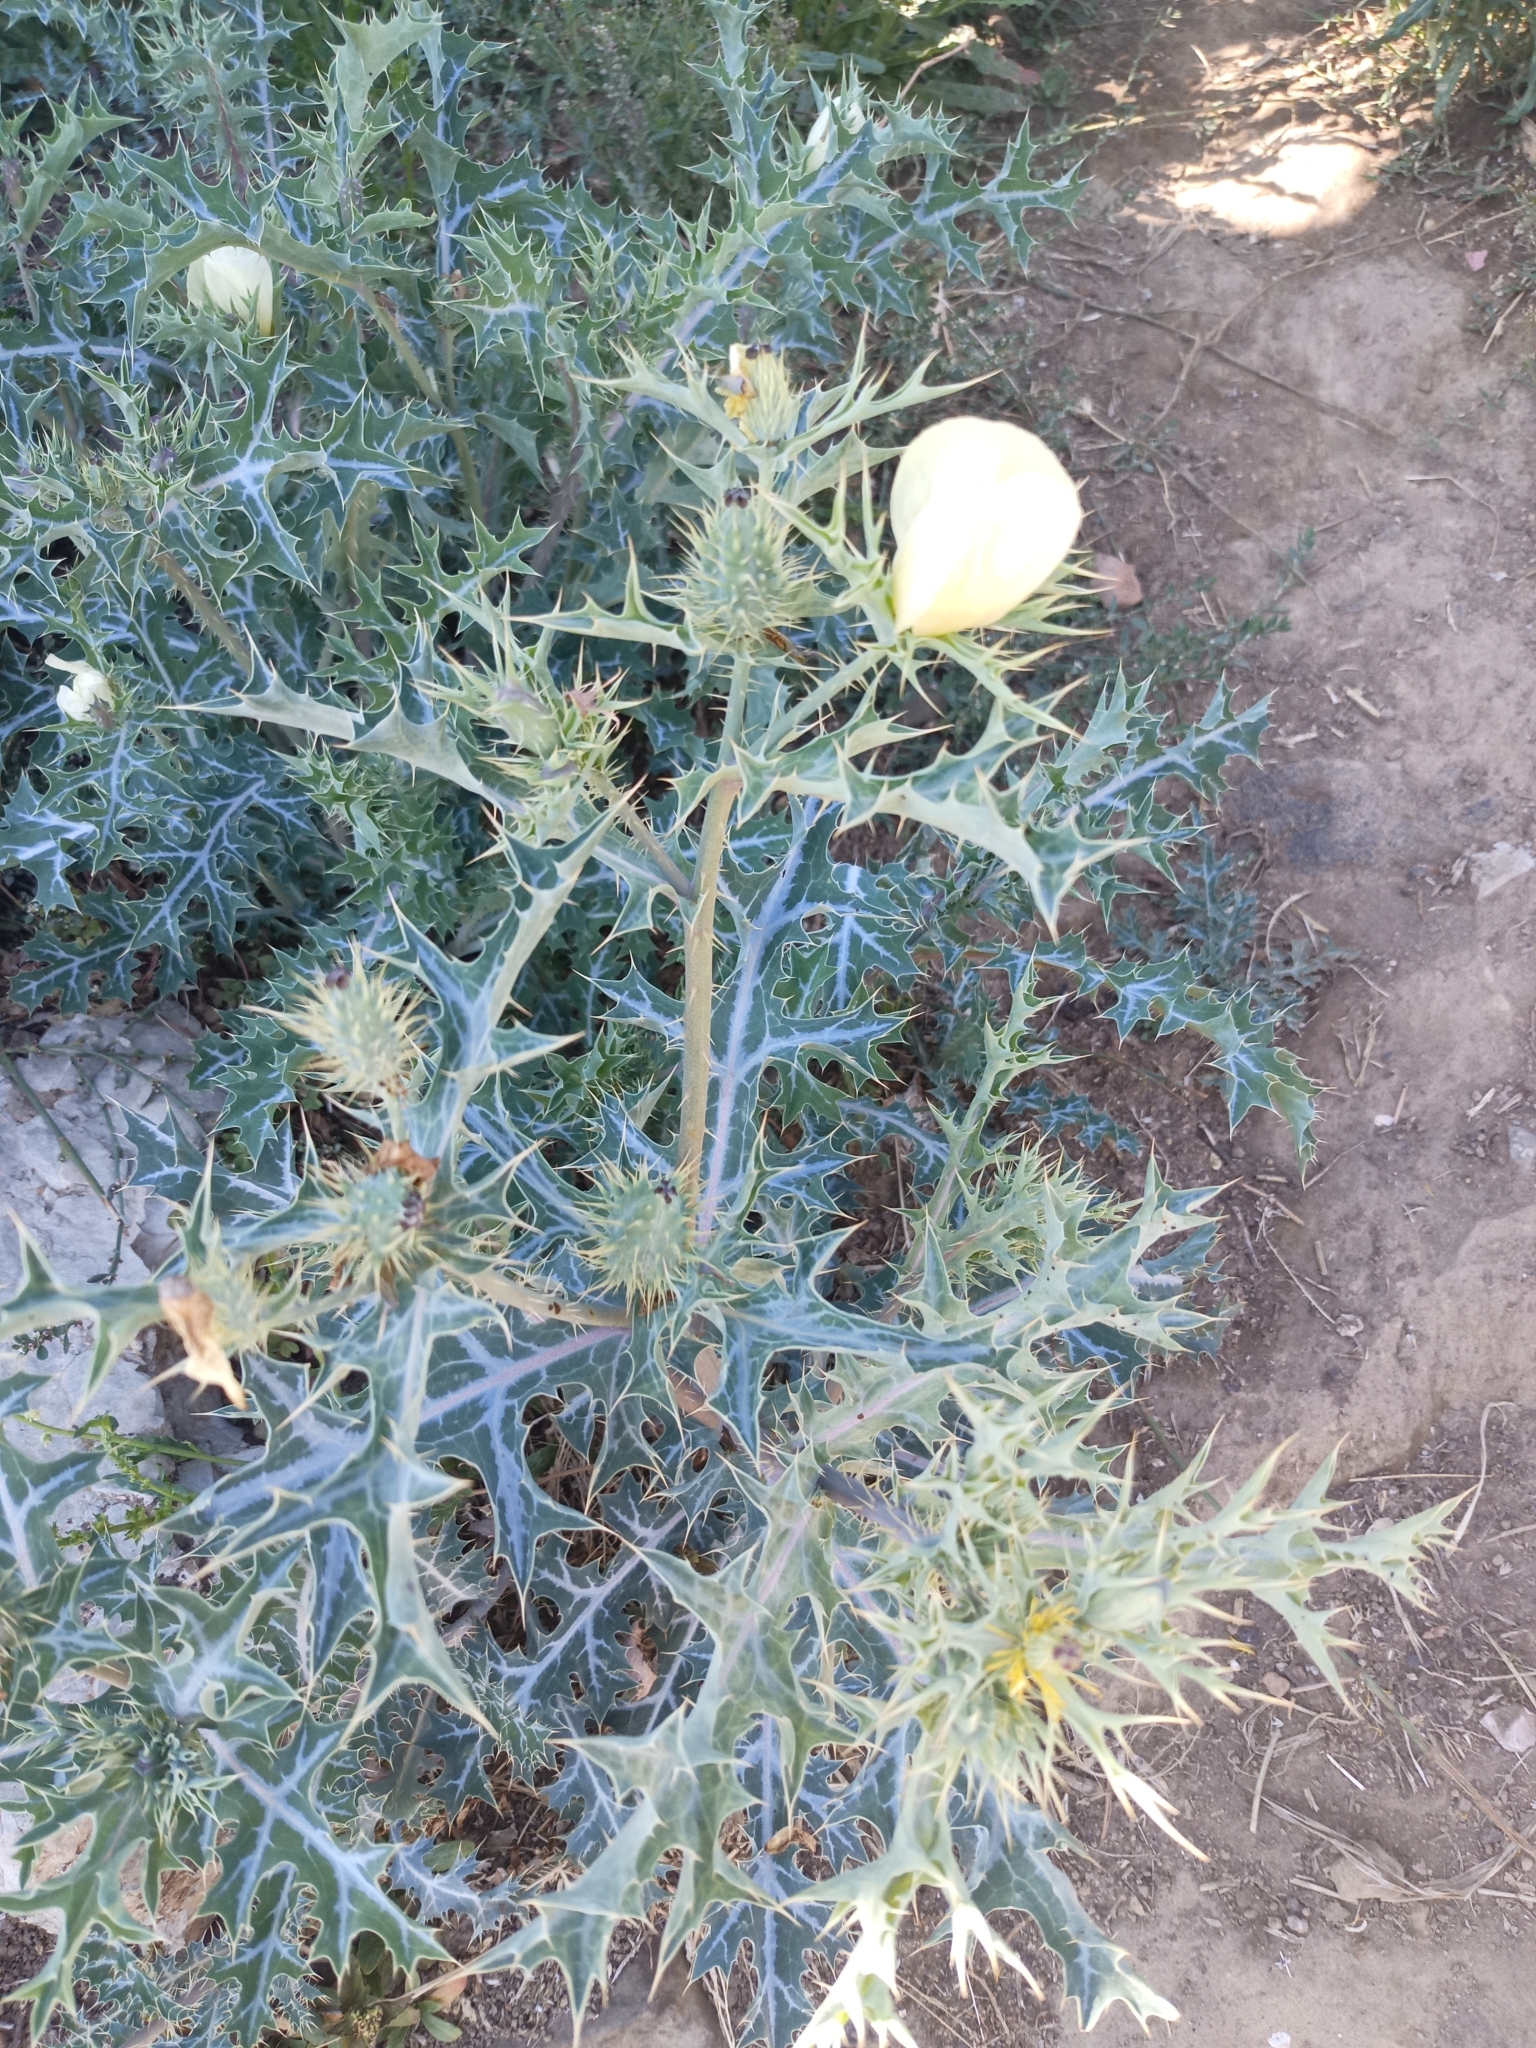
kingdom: Plantae
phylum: Tracheophyta
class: Magnoliopsida
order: Ranunculales
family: Papaveraceae
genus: Argemone
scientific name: Argemone ochroleuca
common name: White-flower mexican-poppy
